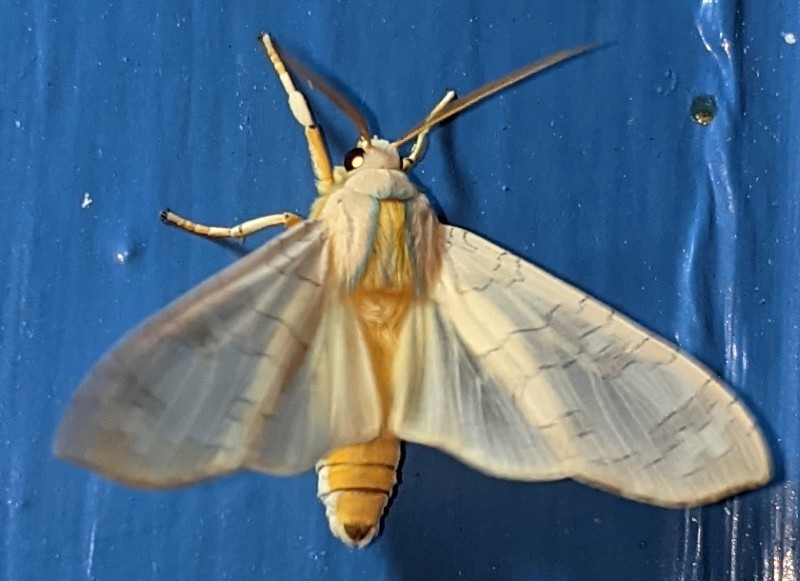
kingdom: Animalia
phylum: Arthropoda
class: Insecta
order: Lepidoptera
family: Erebidae
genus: Halysidota
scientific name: Halysidota tessellaris
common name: Banded tussock moth
